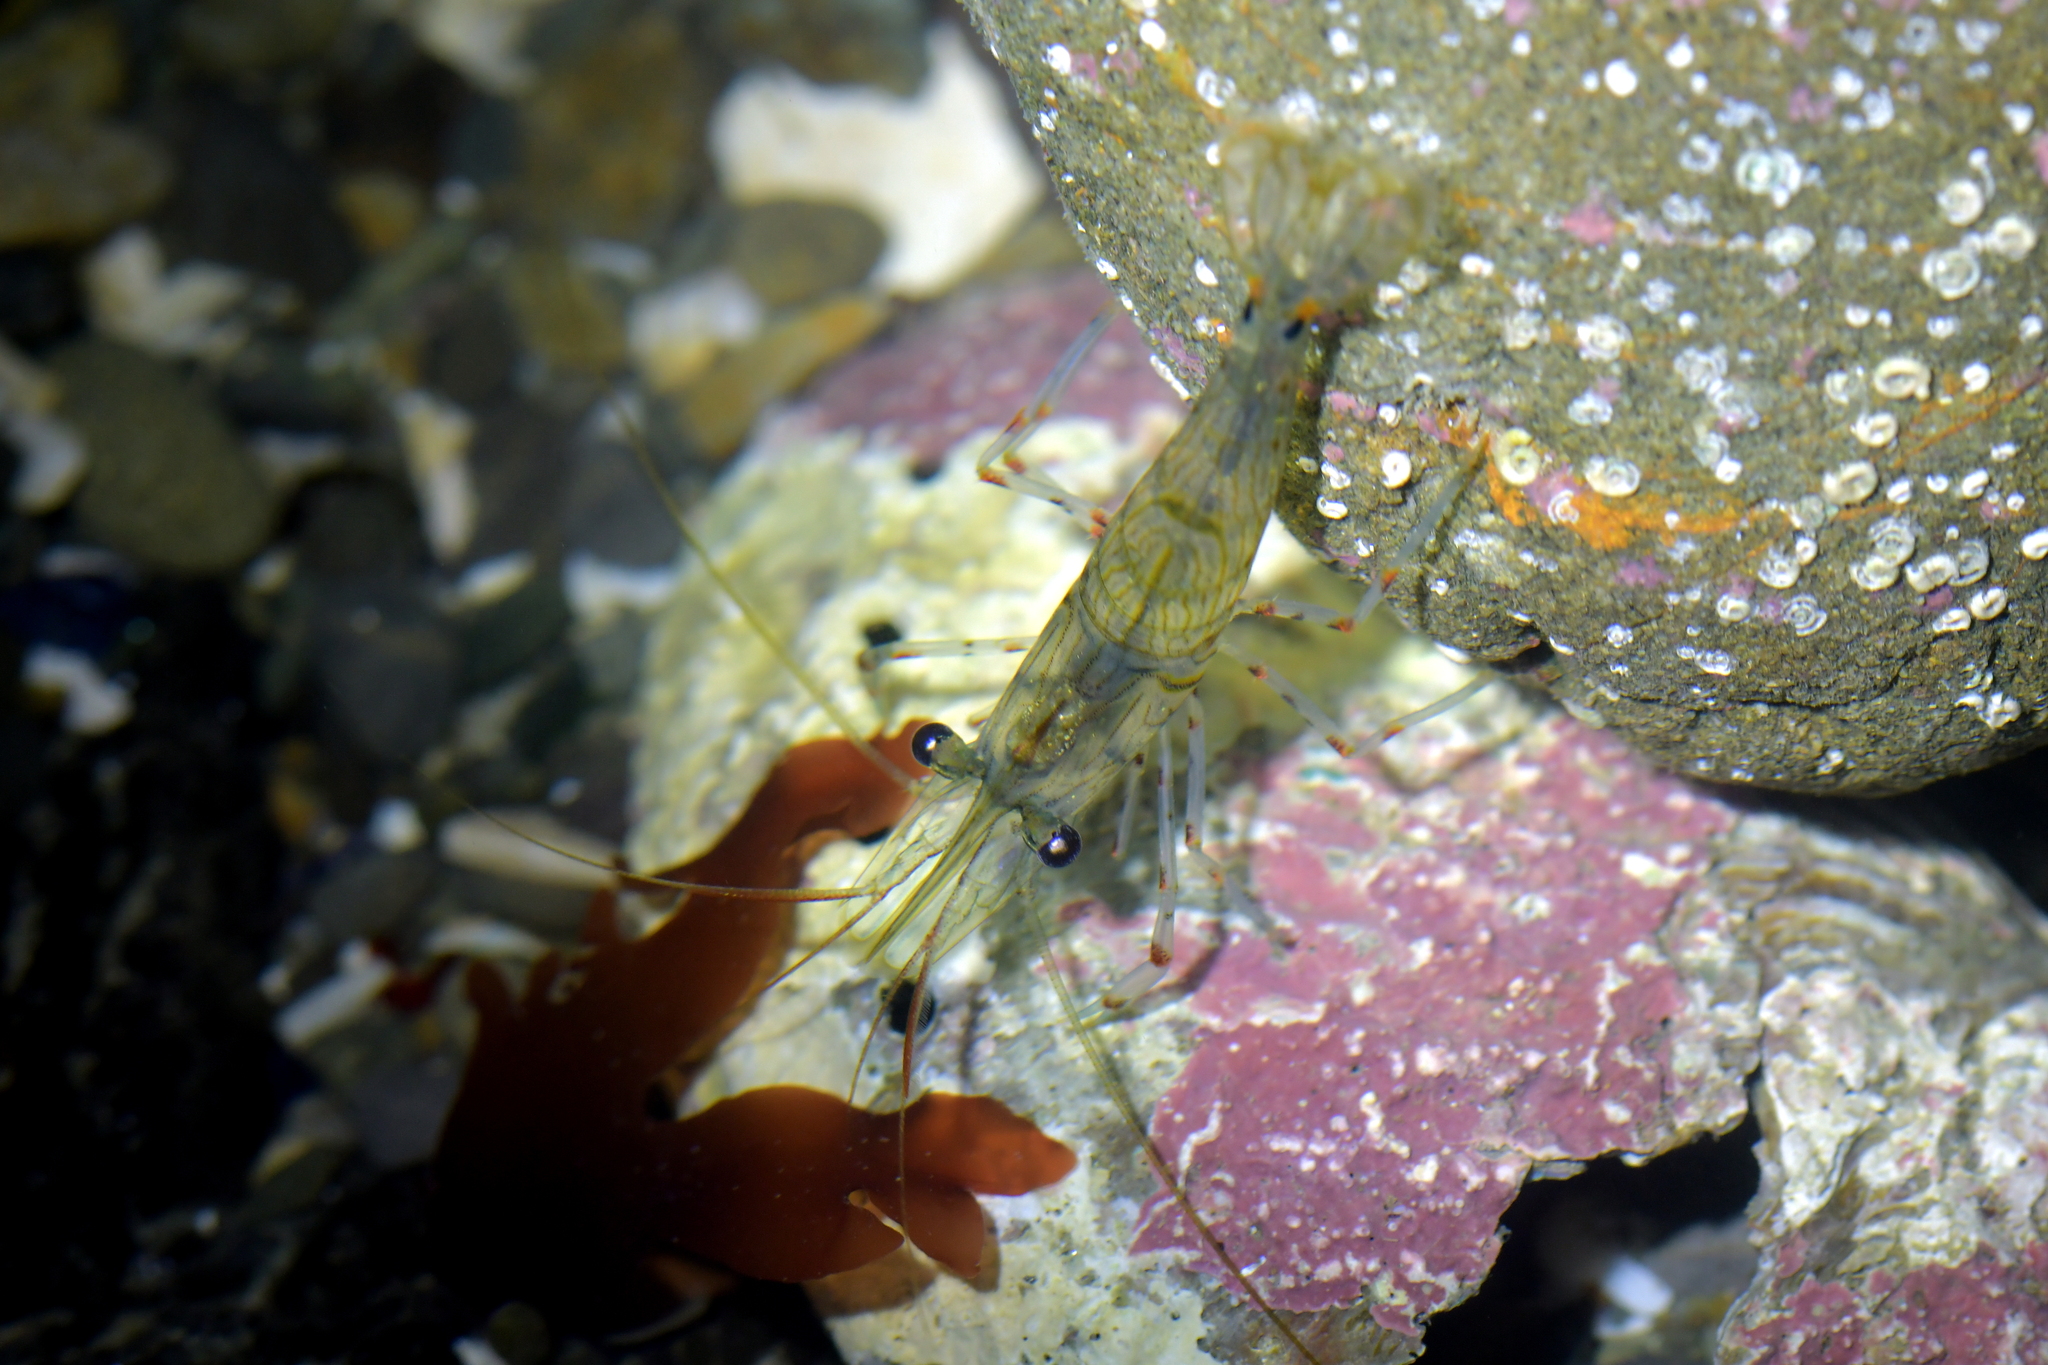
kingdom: Animalia
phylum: Arthropoda
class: Malacostraca
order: Decapoda
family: Palaemonidae
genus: Palaemon
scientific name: Palaemon affinis
